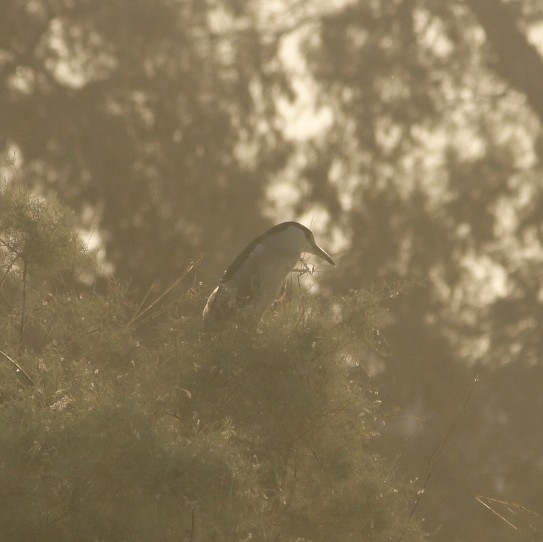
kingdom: Animalia
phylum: Chordata
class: Aves
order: Pelecaniformes
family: Ardeidae
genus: Nycticorax
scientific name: Nycticorax nycticorax
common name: Black-crowned night heron
